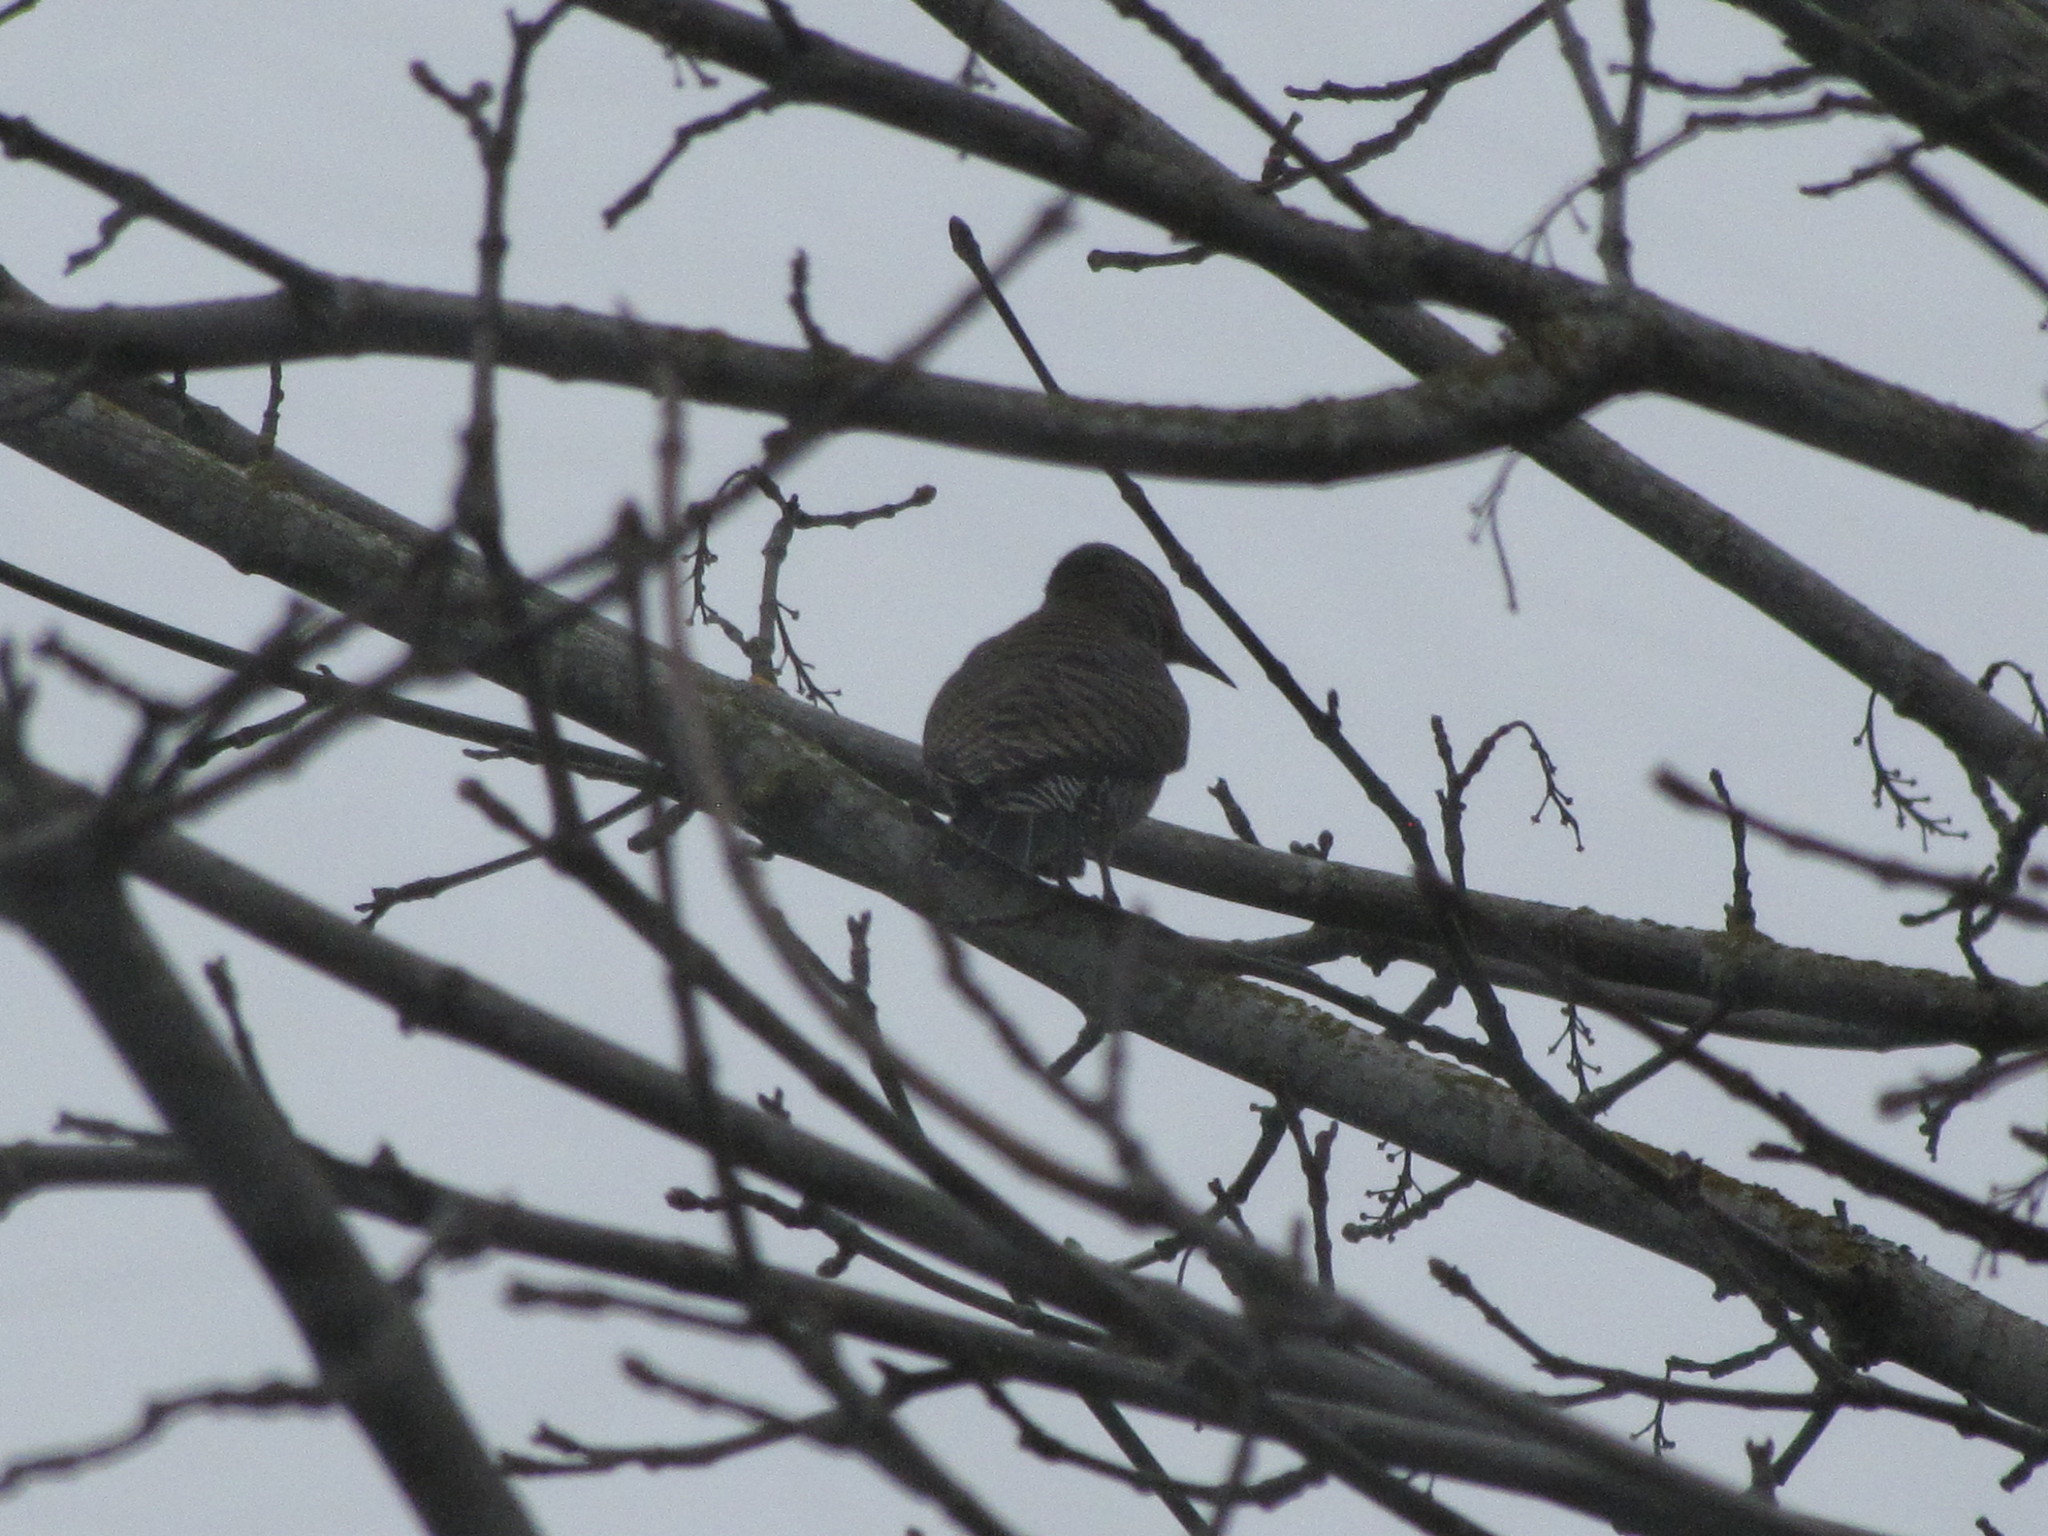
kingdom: Animalia
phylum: Chordata
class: Aves
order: Piciformes
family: Picidae
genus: Colaptes
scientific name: Colaptes auratus
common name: Northern flicker
